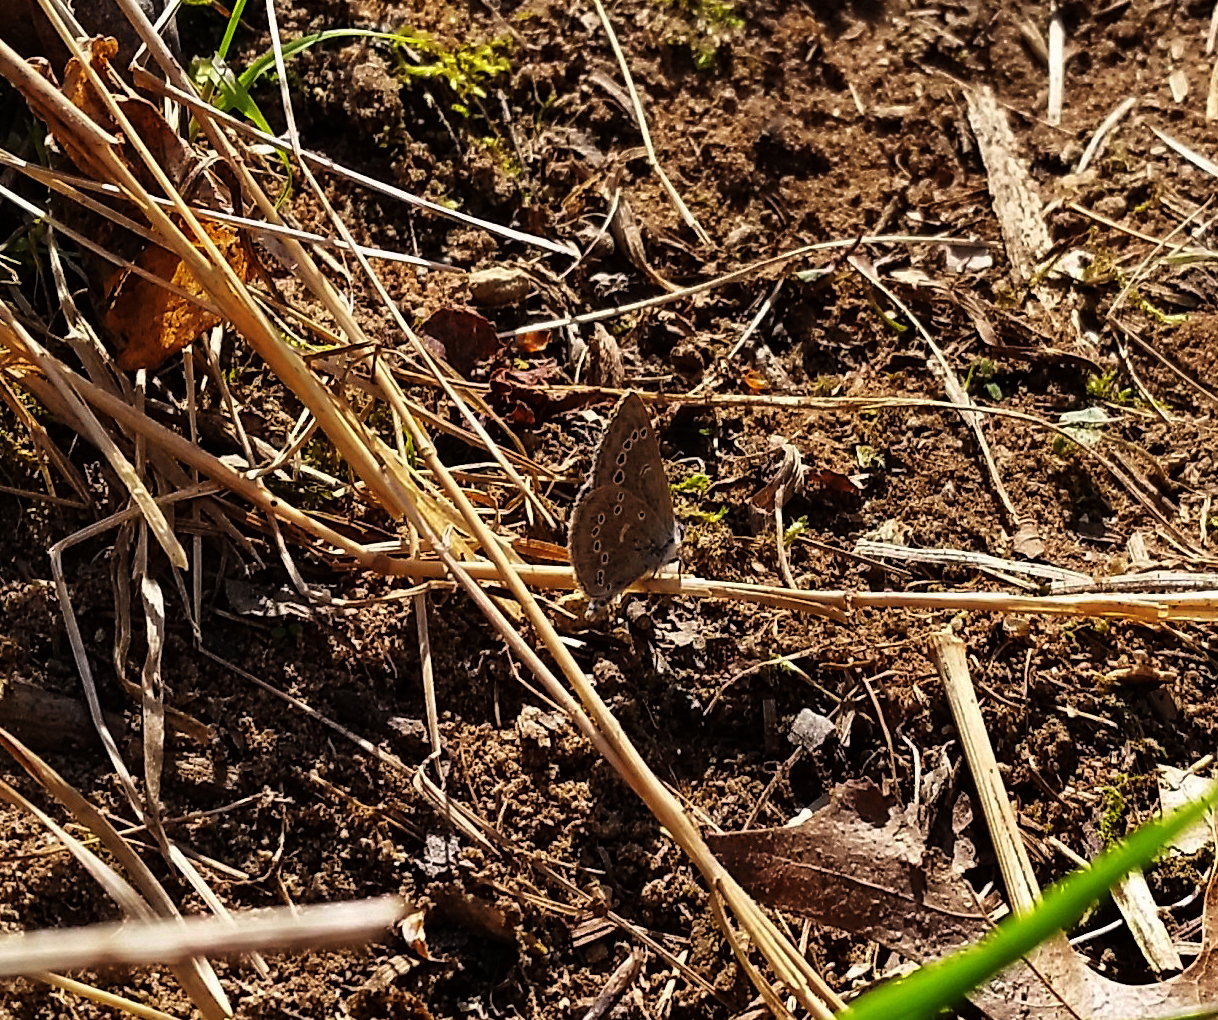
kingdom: Animalia
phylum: Arthropoda
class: Insecta
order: Lepidoptera
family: Lycaenidae
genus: Glaucopsyche
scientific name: Glaucopsyche lygdamus
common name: Silvery blue
